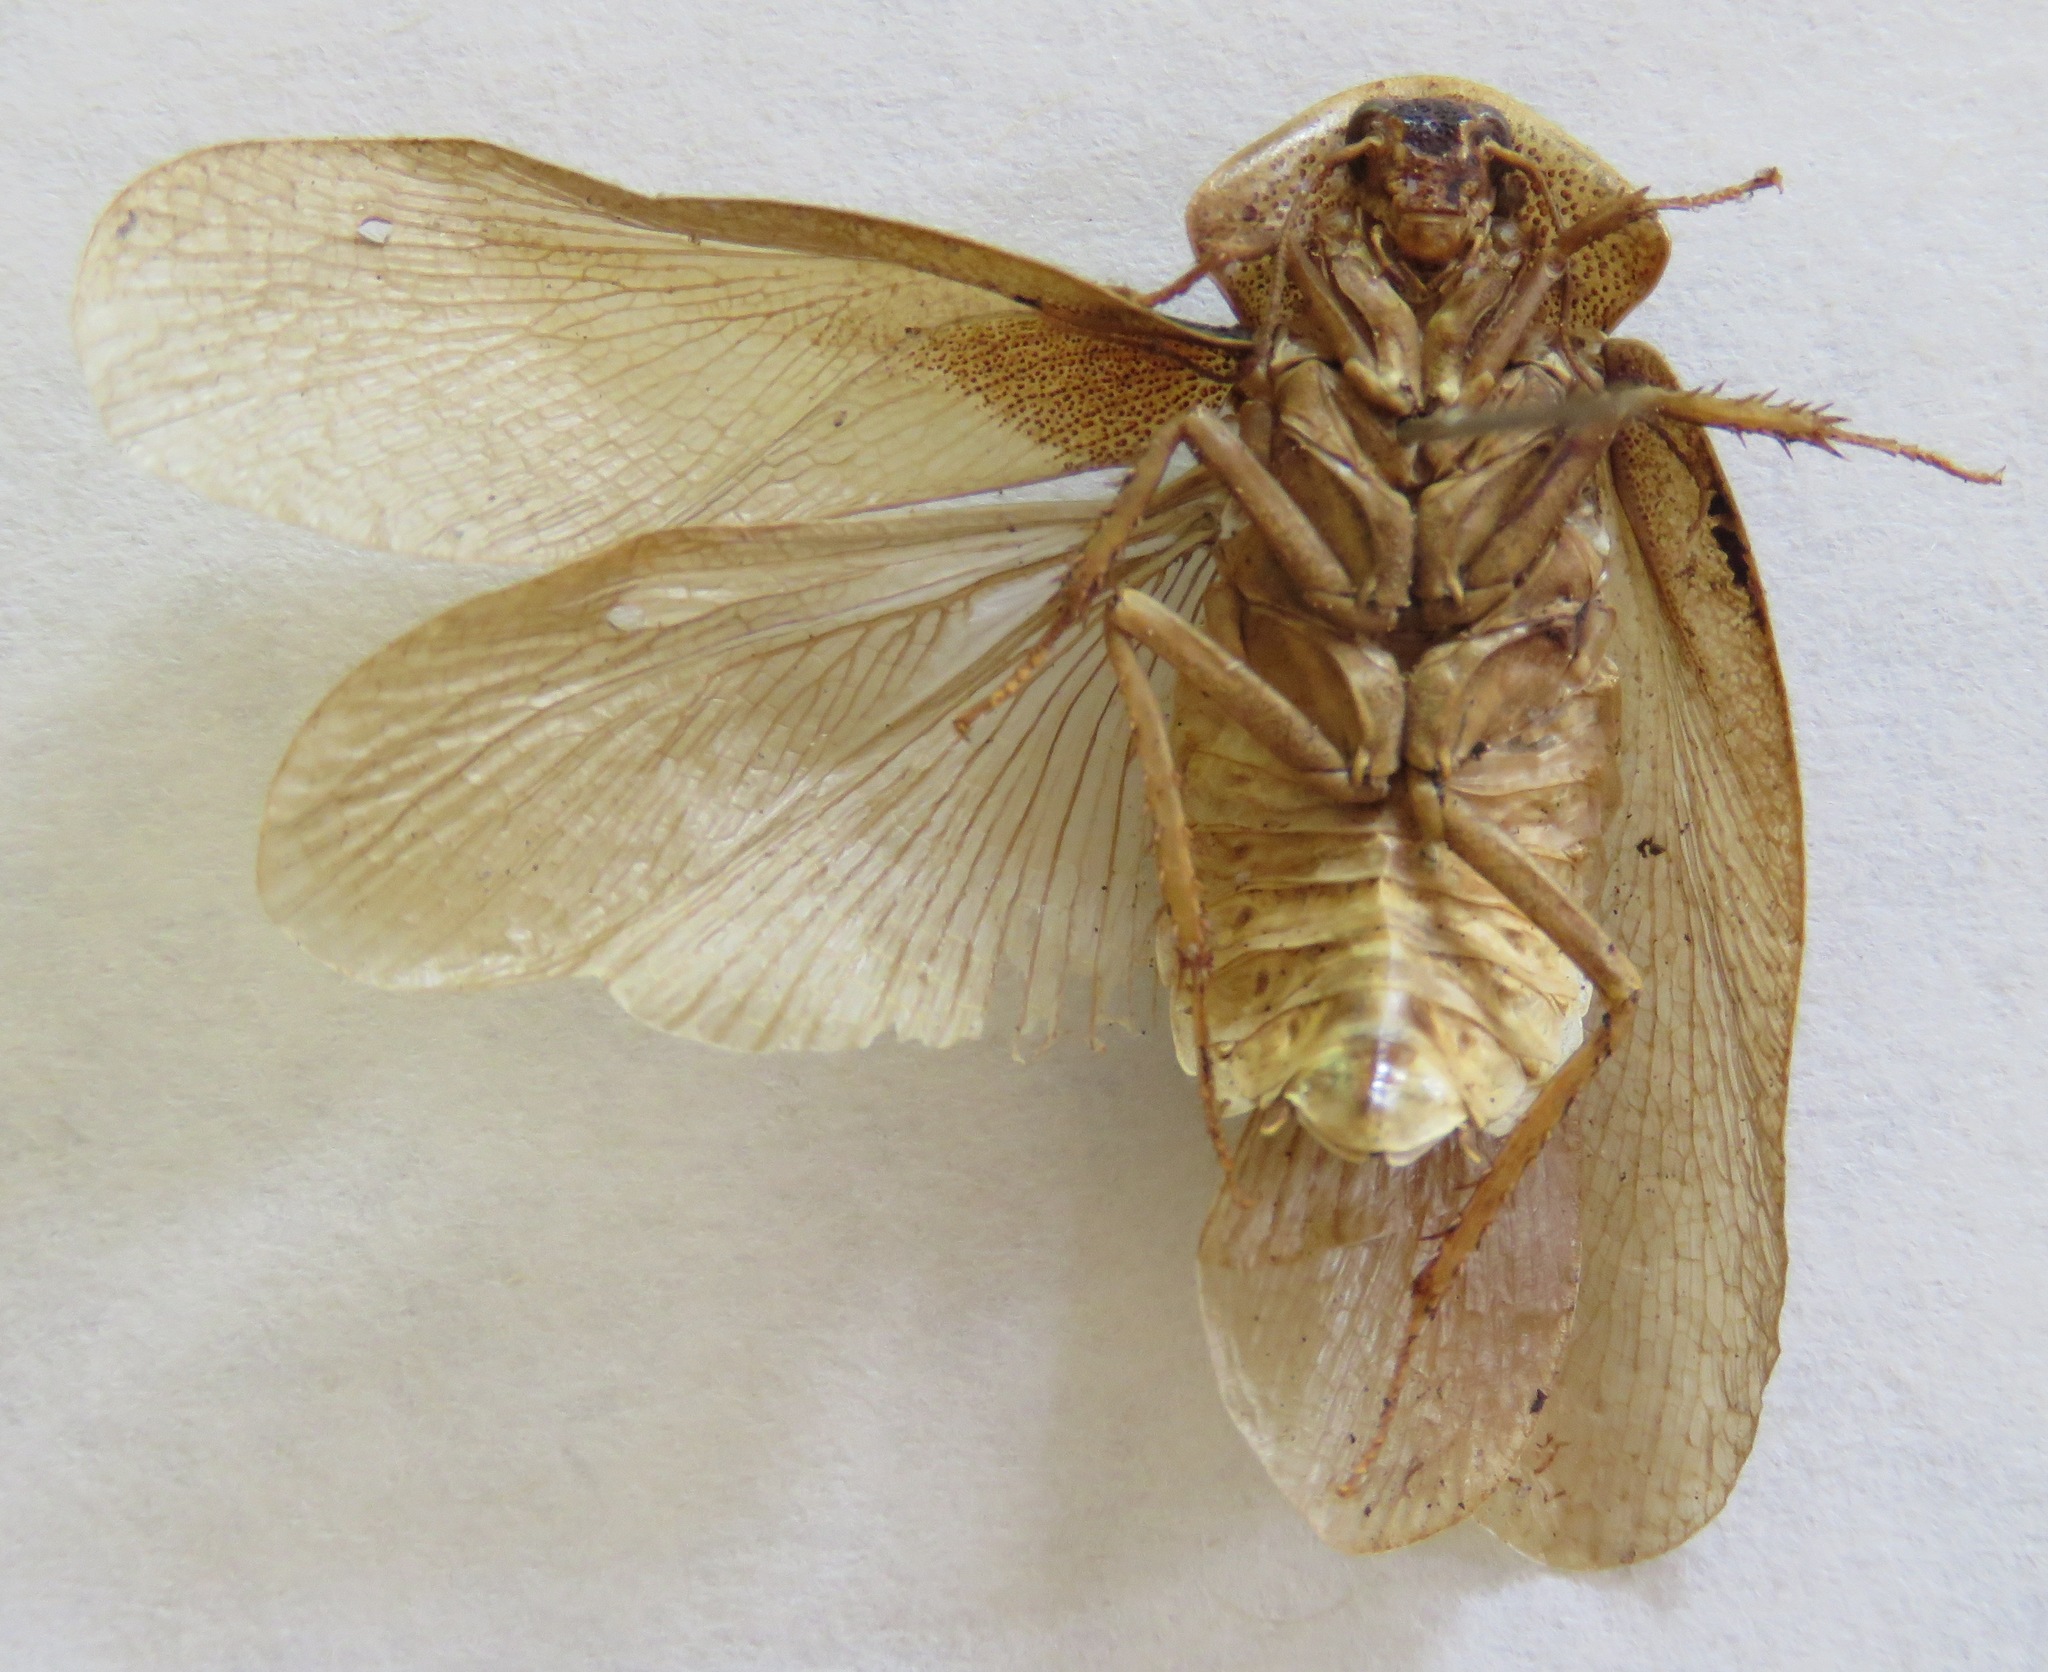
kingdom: Animalia
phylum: Arthropoda
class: Insecta
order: Blattodea
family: Blaberidae
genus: Hyporhicnoda
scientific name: Hyporhicnoda reflexa
